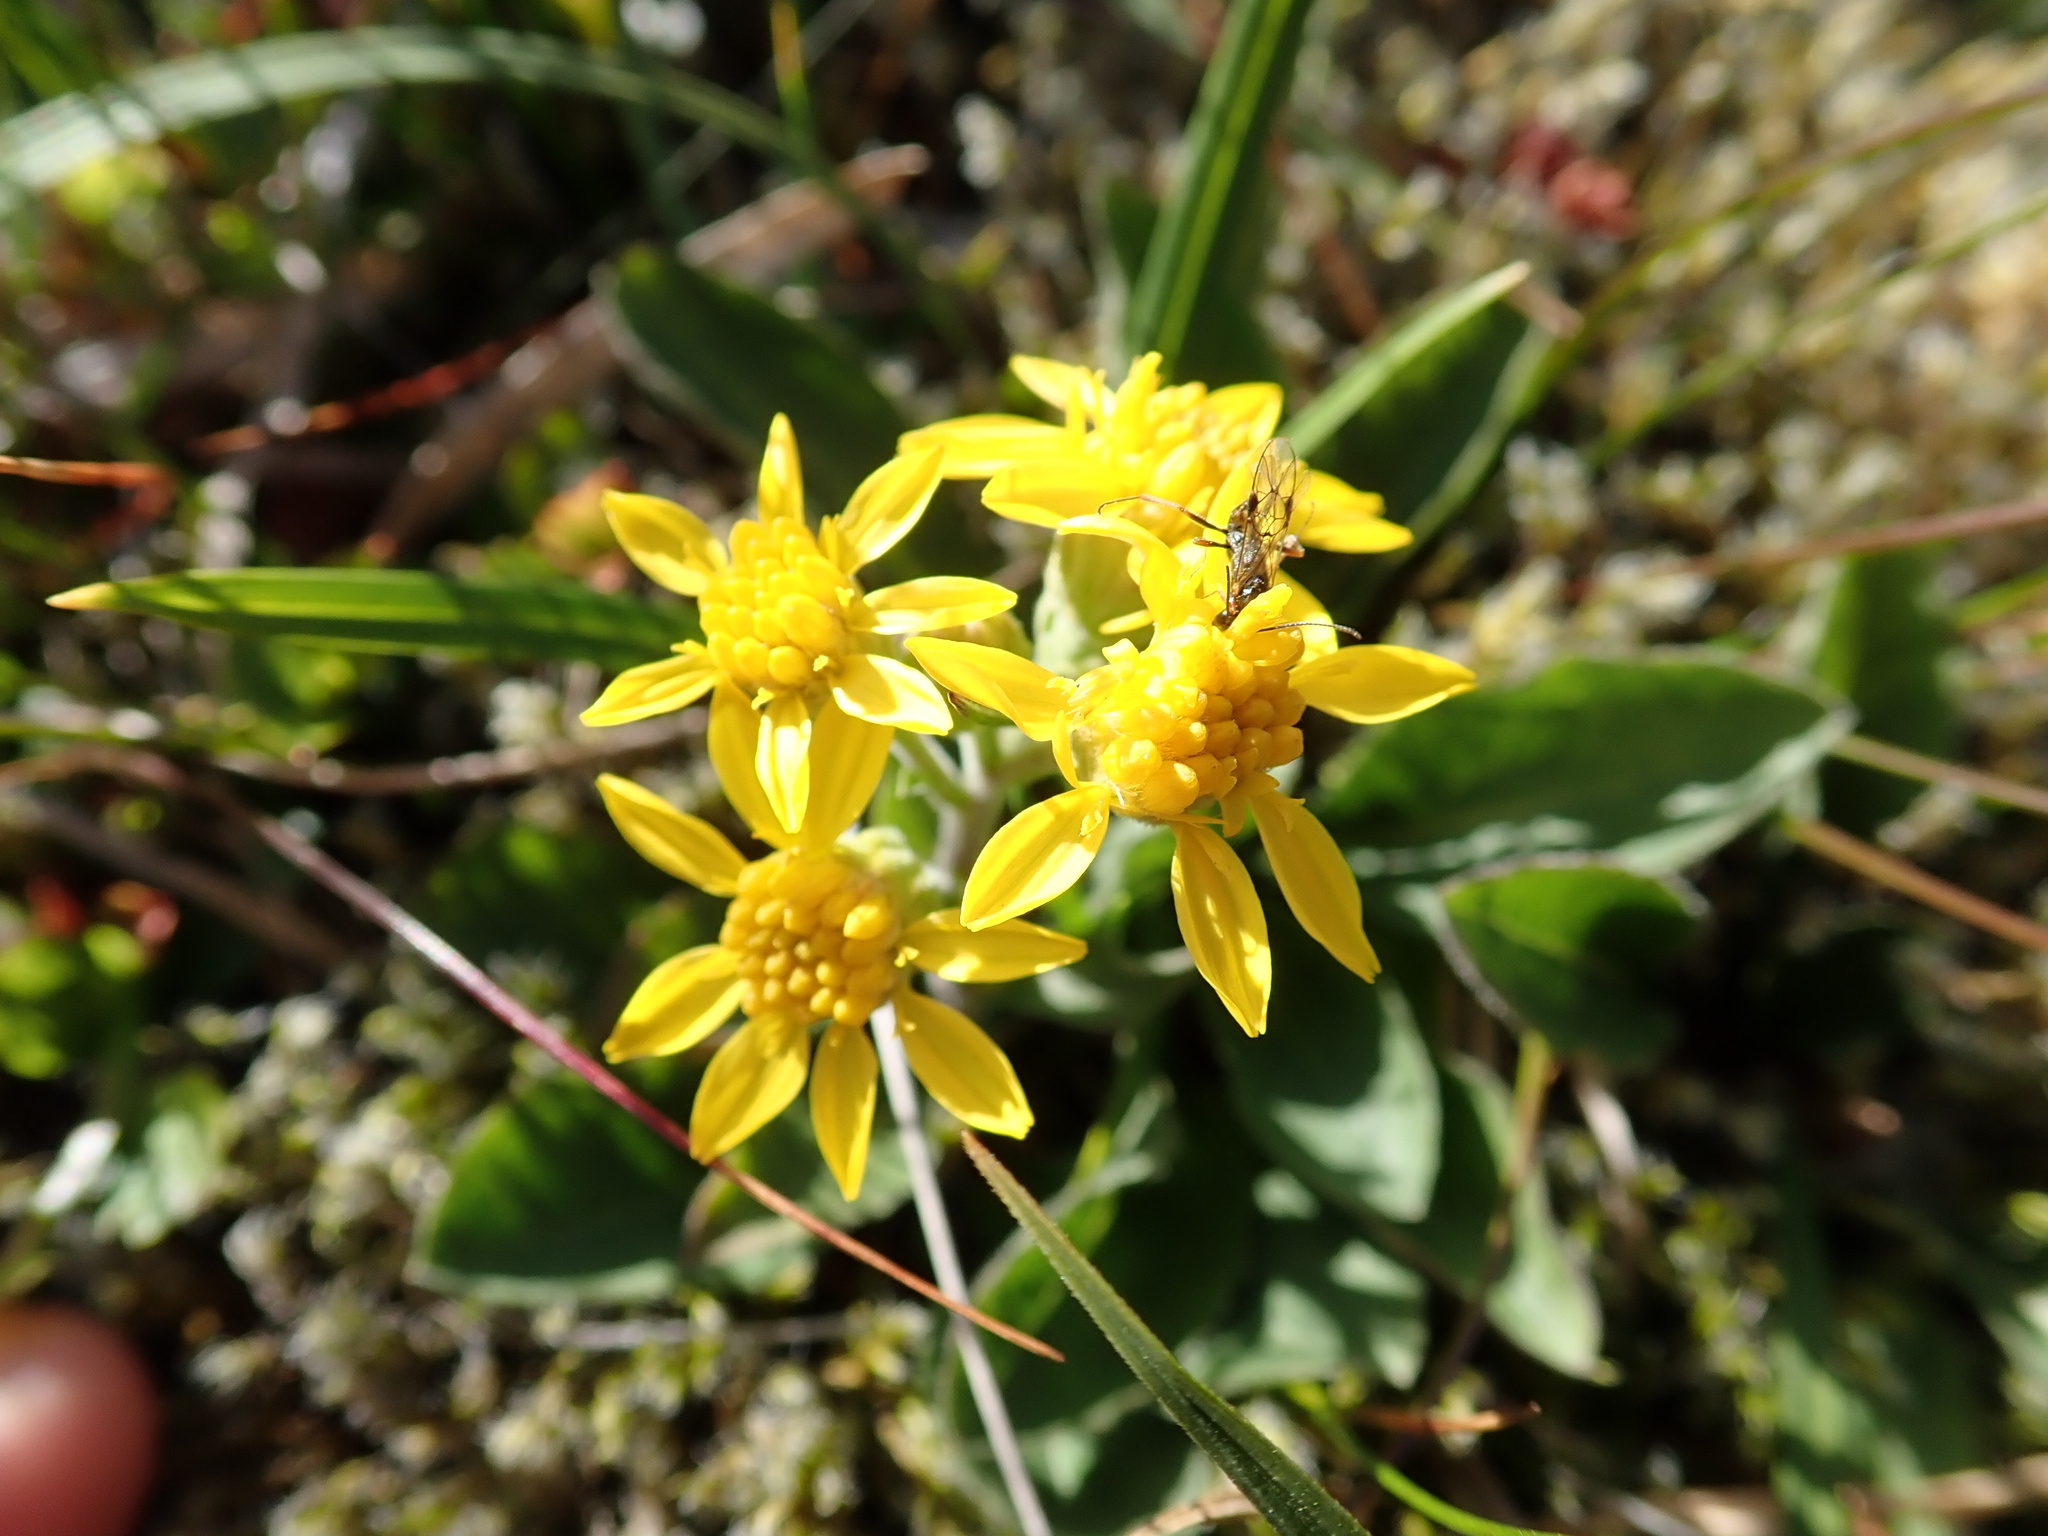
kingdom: Plantae
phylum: Tracheophyta
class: Magnoliopsida
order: Asterales
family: Asteraceae
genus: Solidago
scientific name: Solidago virgaurea
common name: Goldenrod
